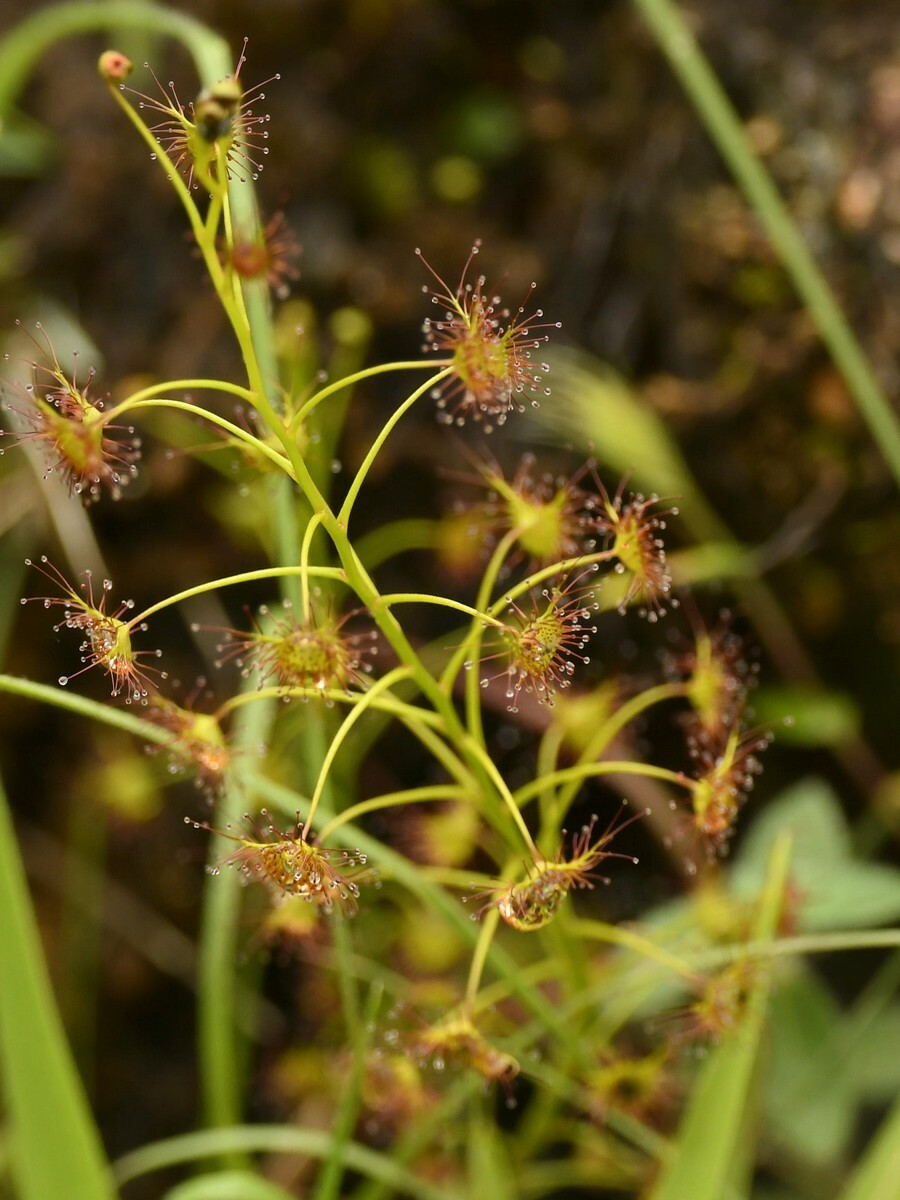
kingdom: Plantae
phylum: Tracheophyta
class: Magnoliopsida
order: Caryophyllales
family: Droseraceae
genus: Drosera
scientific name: Drosera peltata
